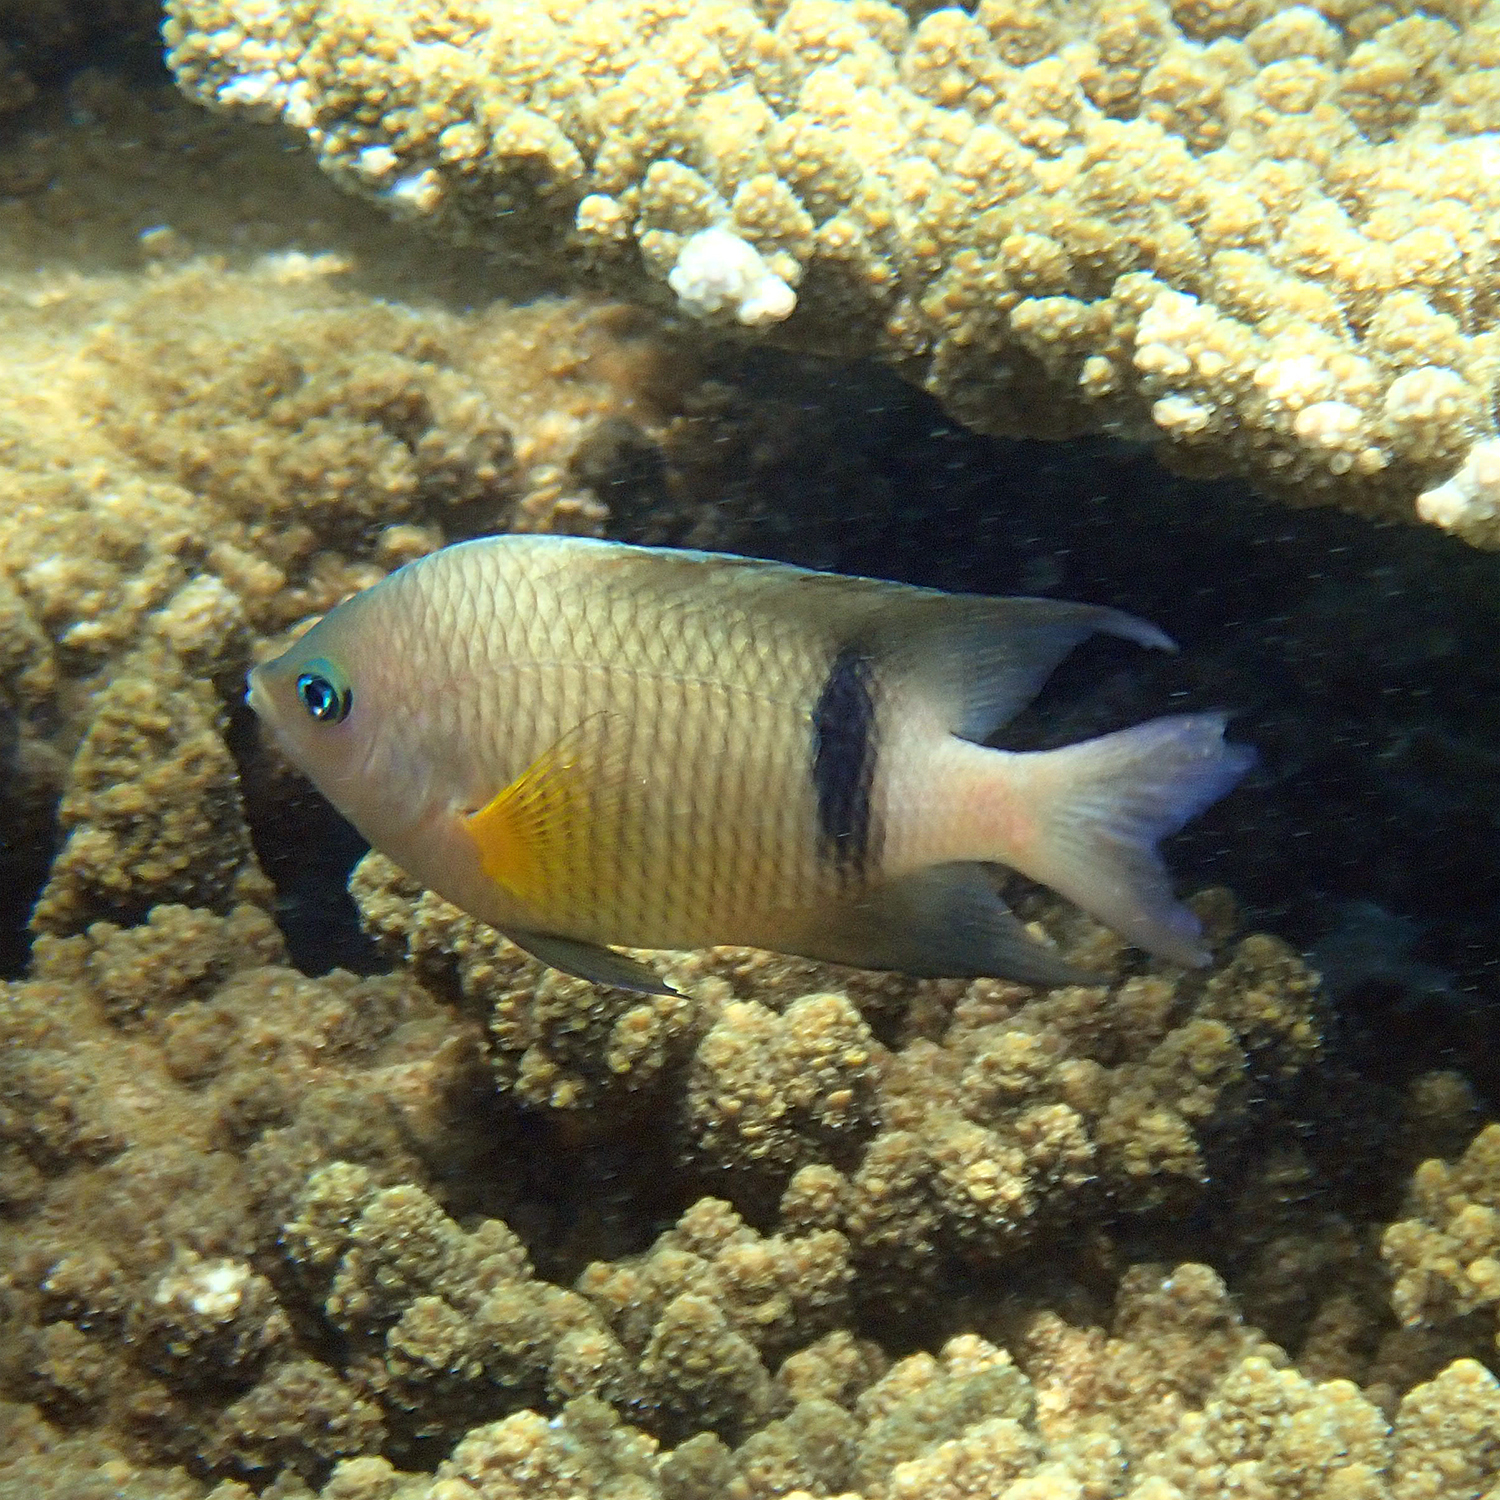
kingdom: Animalia
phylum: Chordata
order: Perciformes
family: Pomacentridae
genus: Plectroglyphidodon
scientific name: Plectroglyphidodon dickii
